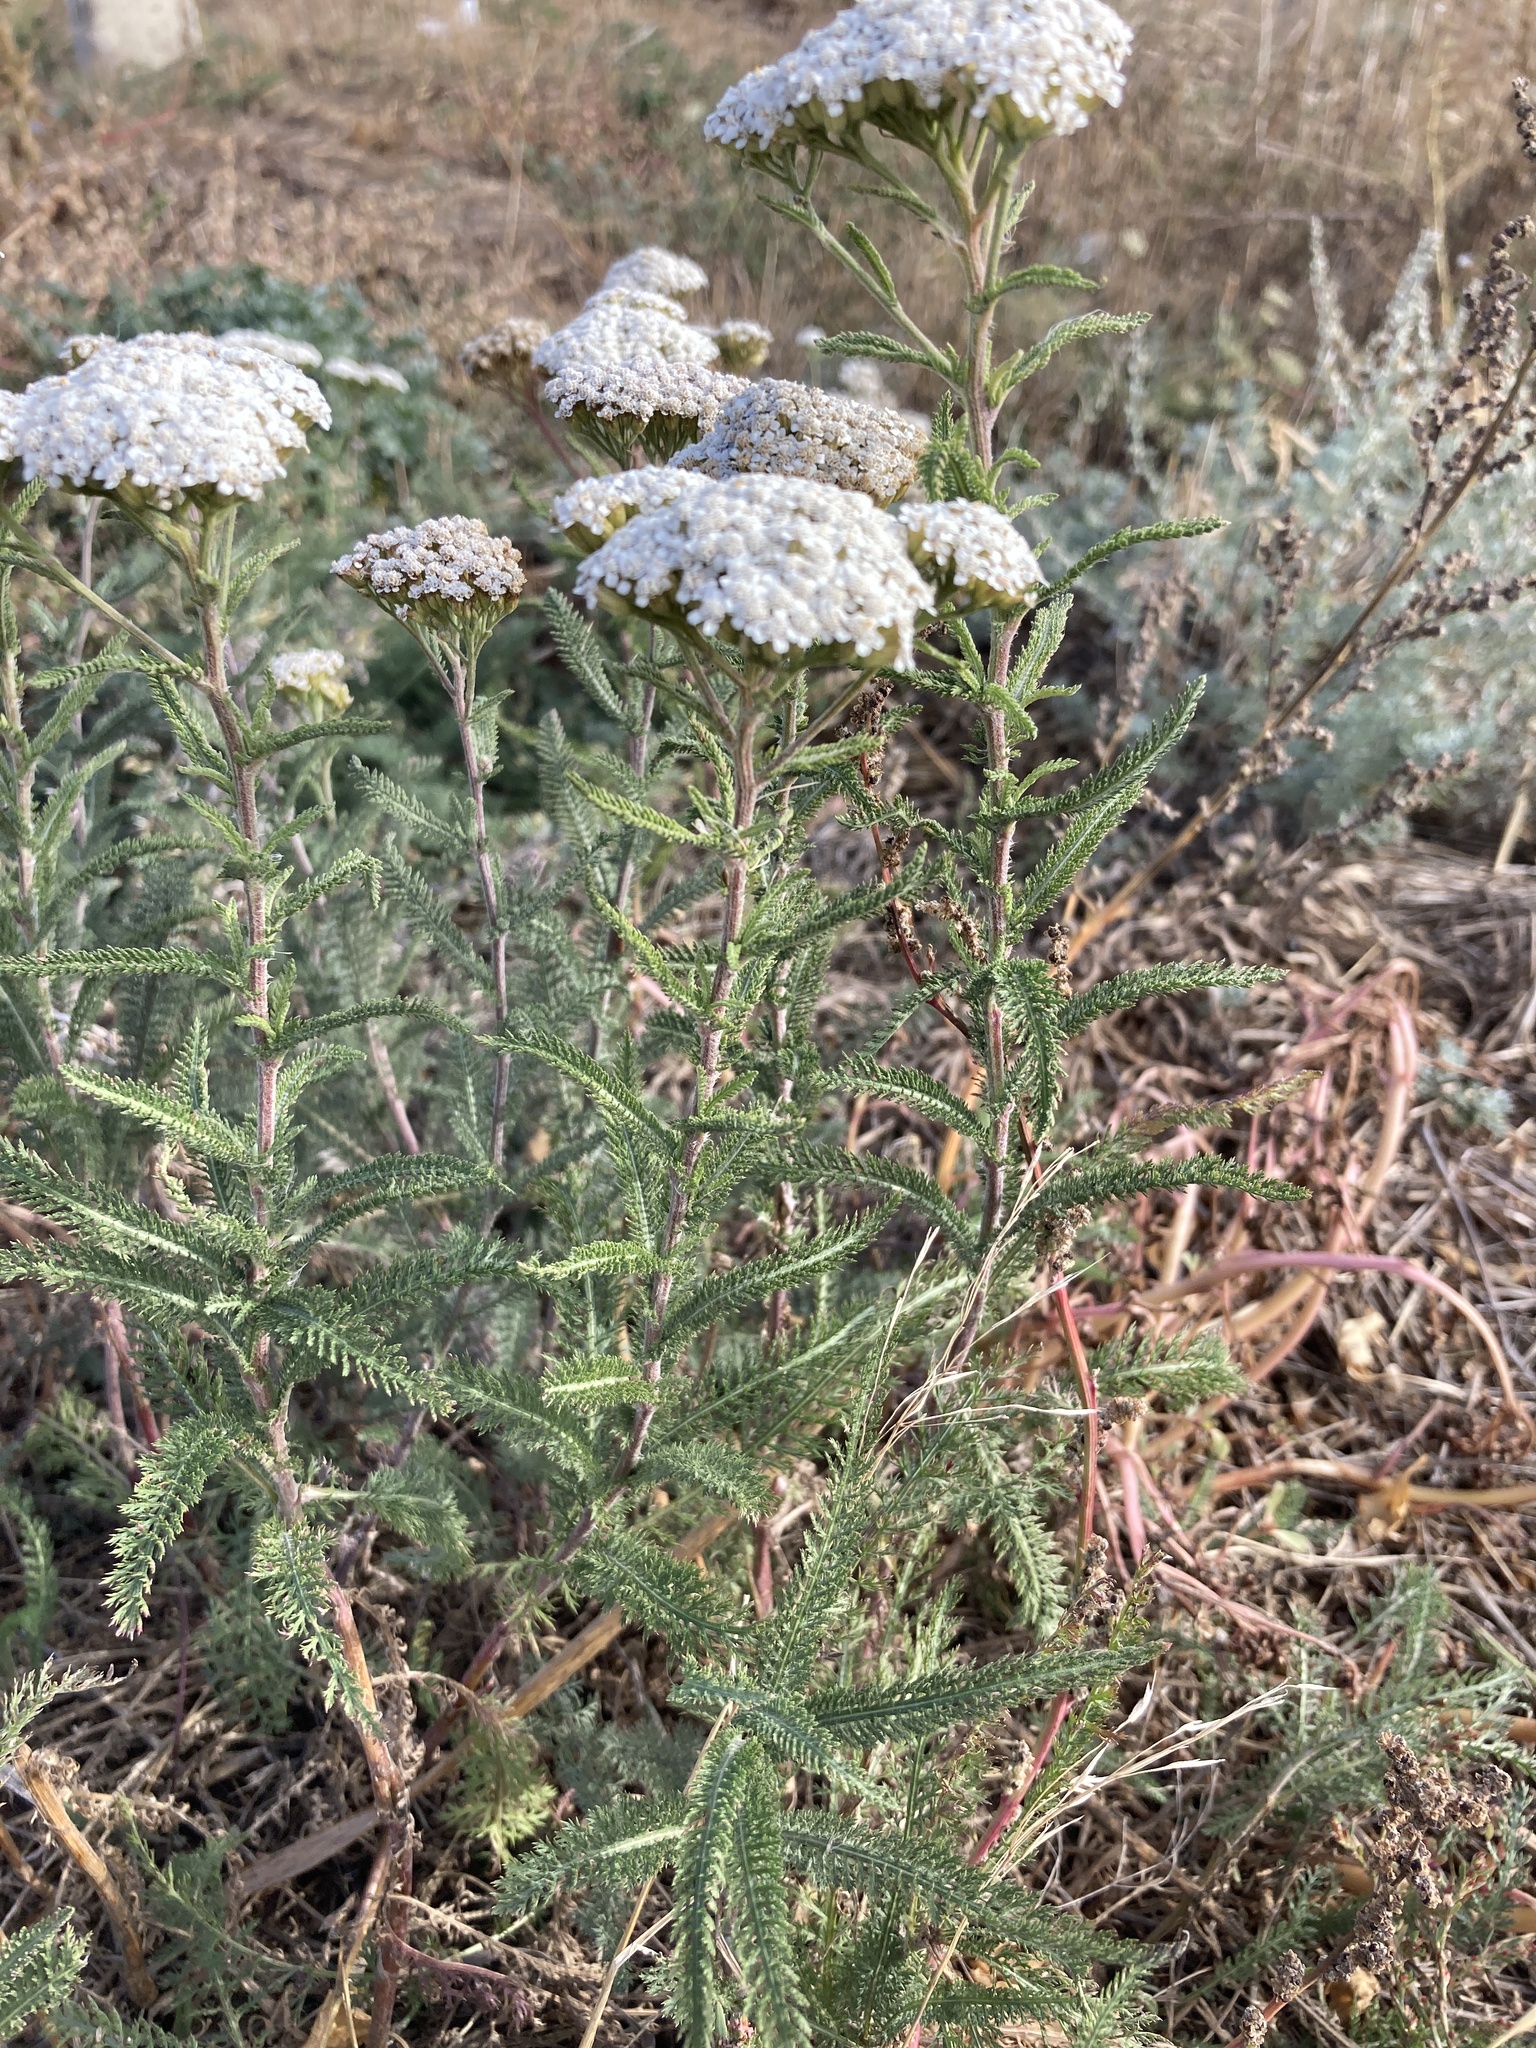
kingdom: Plantae
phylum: Tracheophyta
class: Magnoliopsida
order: Asterales
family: Asteraceae
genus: Achillea
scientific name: Achillea setacea
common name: Bristly yarrow
